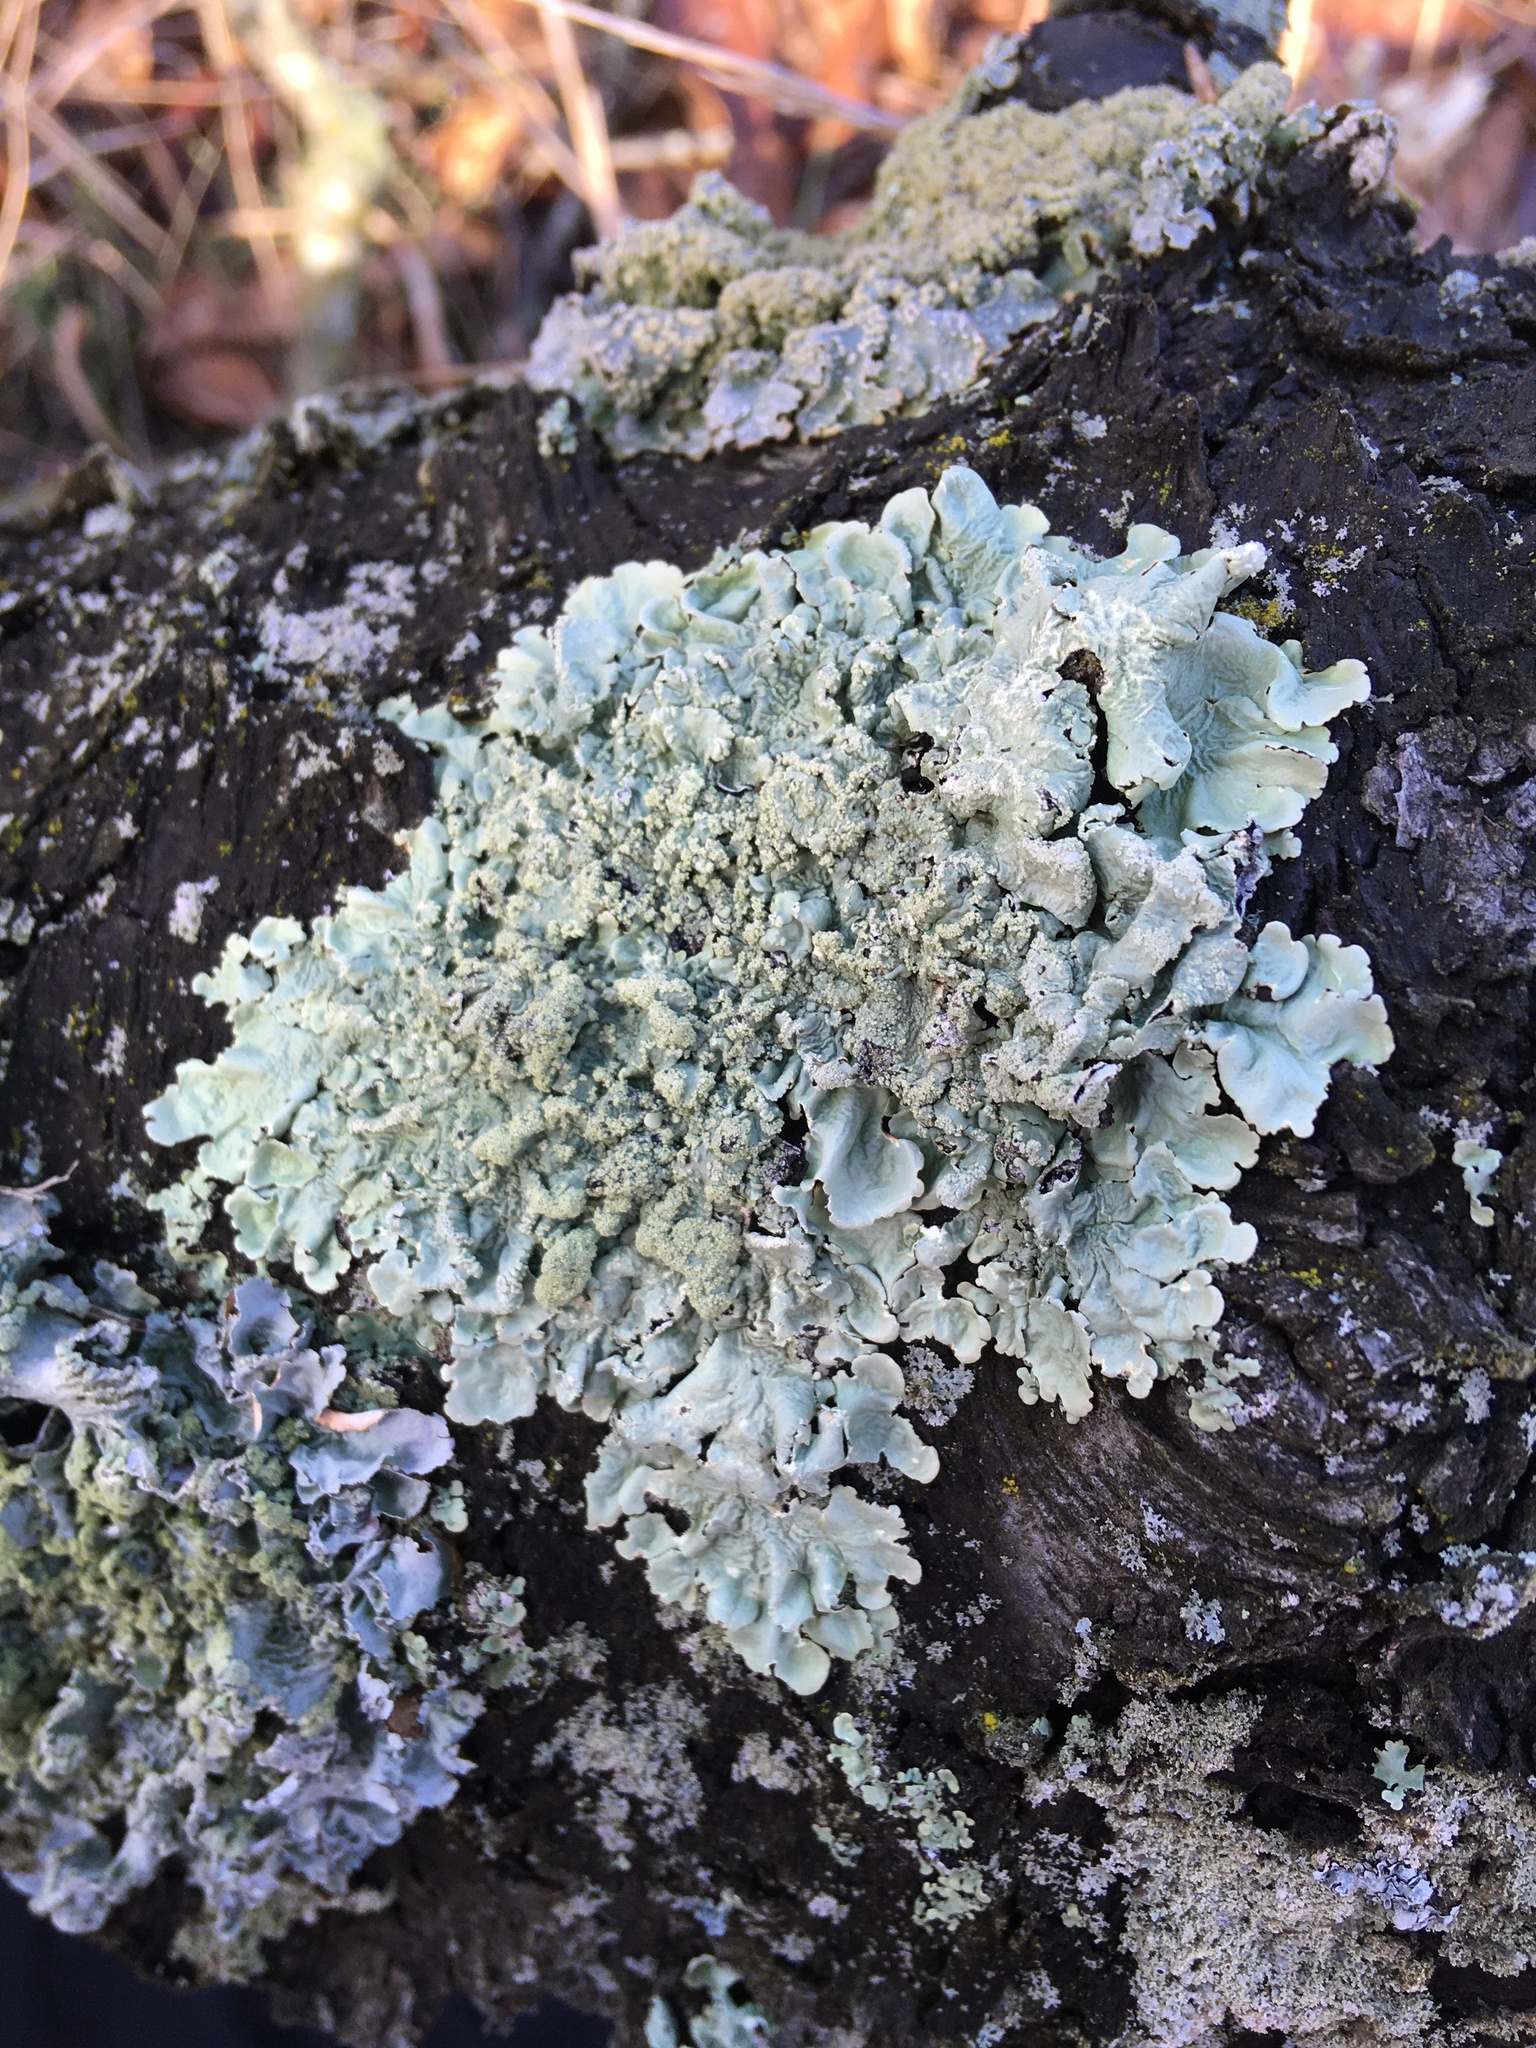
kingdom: Fungi
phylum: Ascomycota
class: Lecanoromycetes
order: Lecanorales
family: Parmeliaceae
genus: Flavoparmelia
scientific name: Flavoparmelia caperata
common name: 40-mile per hour lichen
